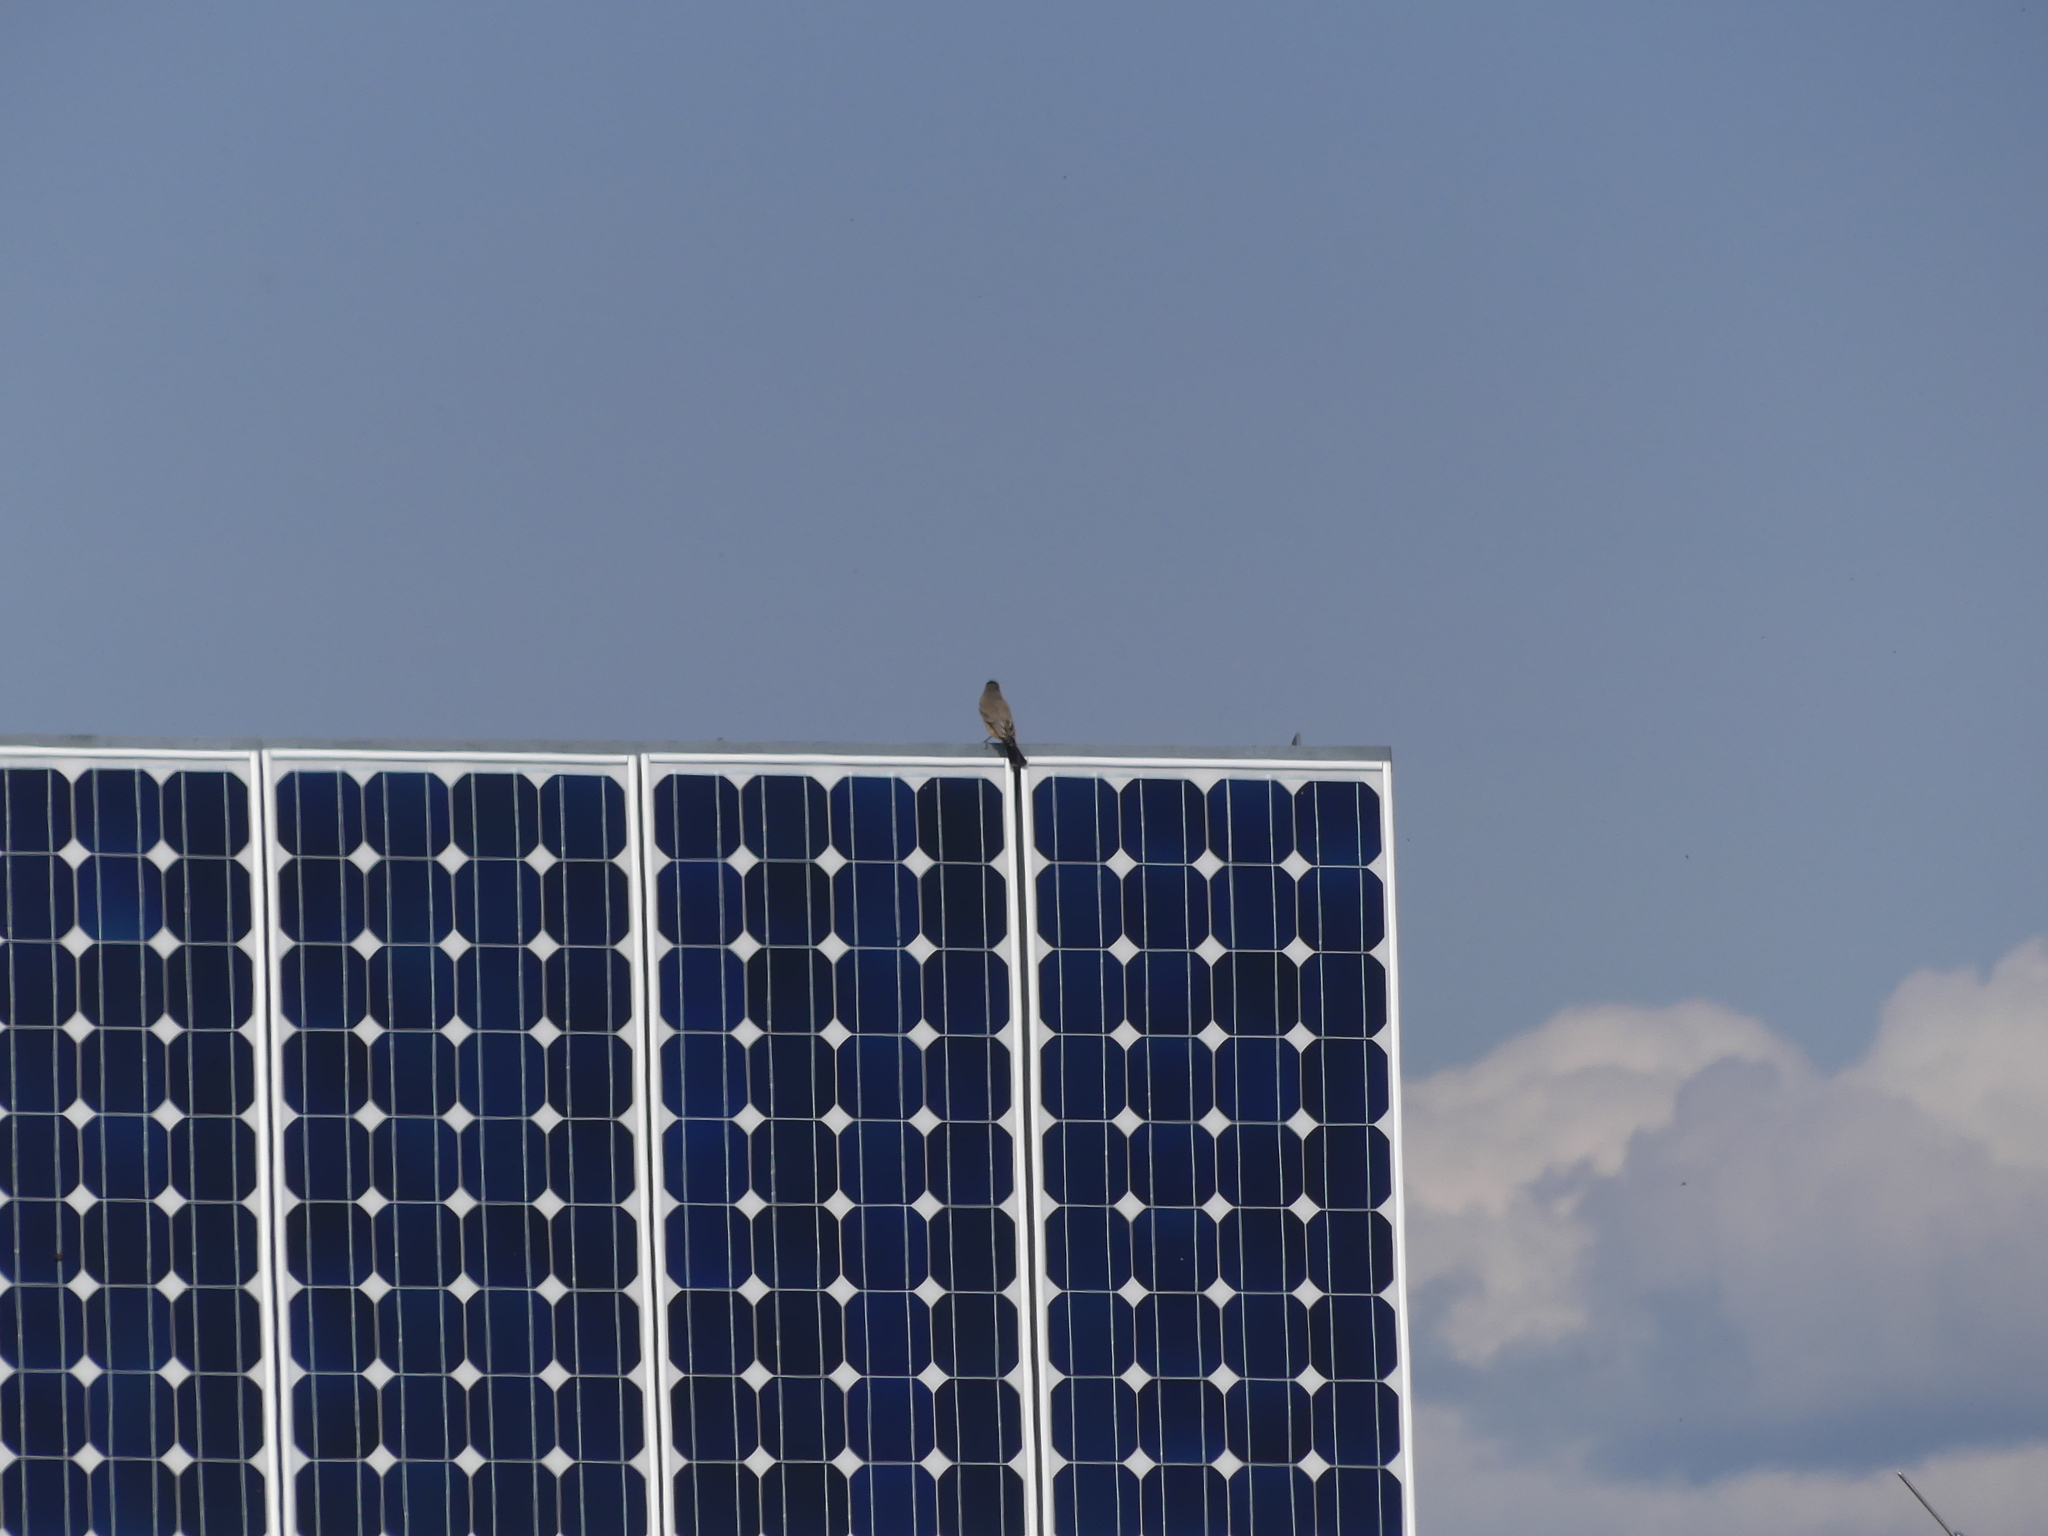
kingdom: Animalia
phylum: Chordata
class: Aves
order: Passeriformes
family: Tyrannidae
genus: Sayornis
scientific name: Sayornis saya
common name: Say's phoebe
